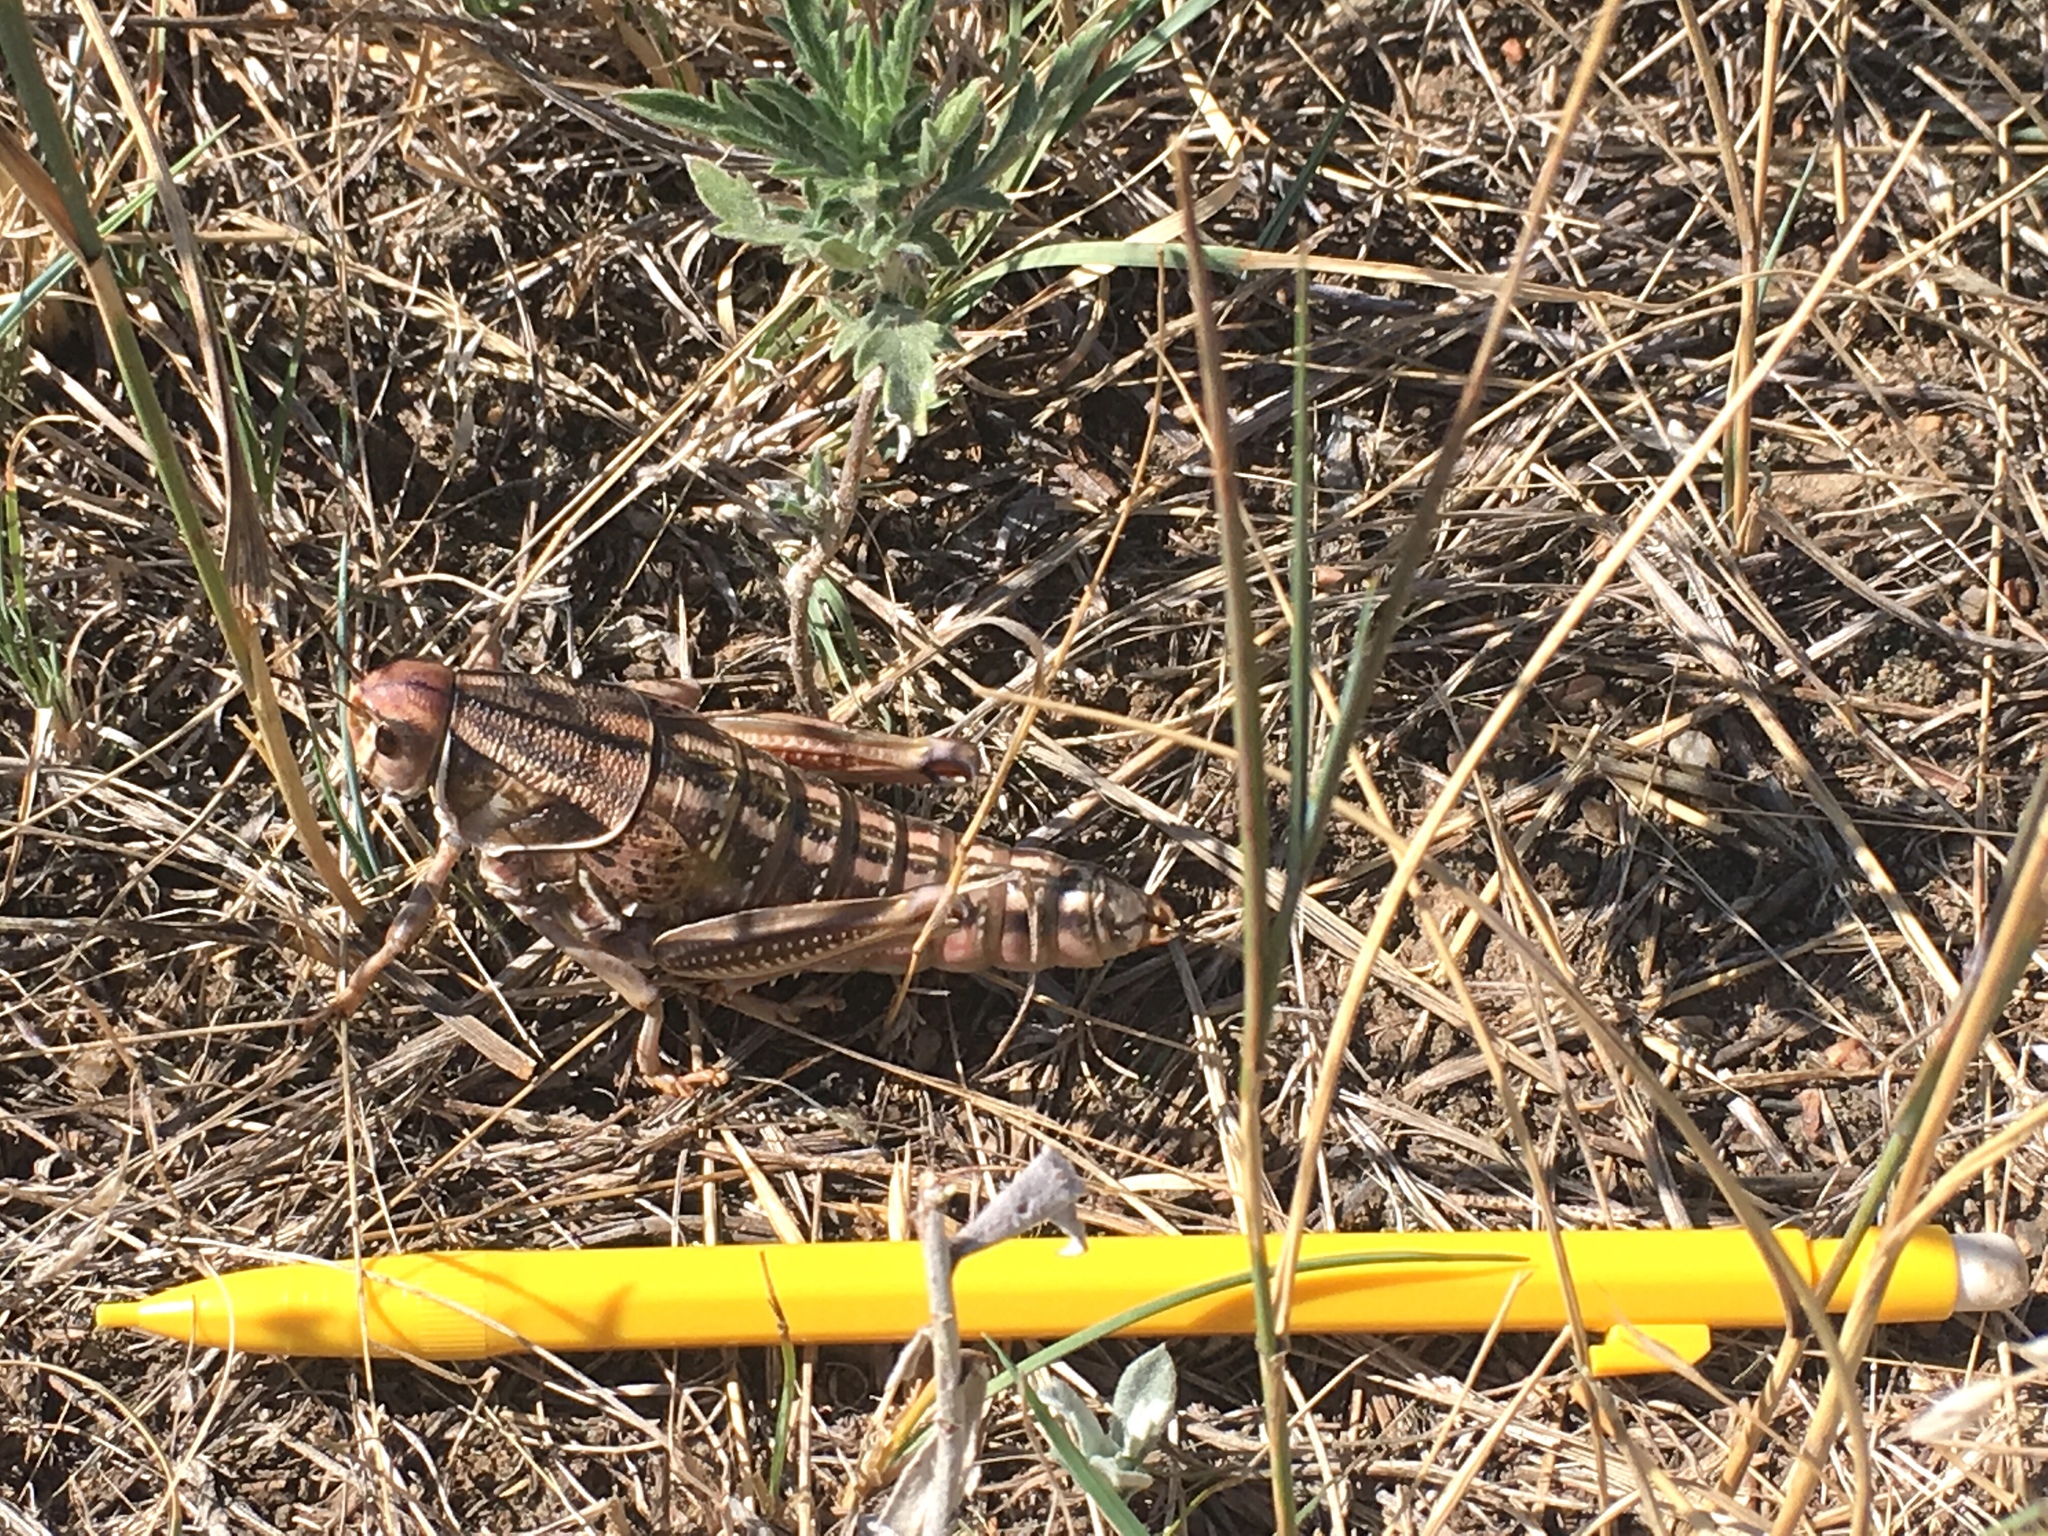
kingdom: Animalia
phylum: Arthropoda
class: Insecta
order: Orthoptera
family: Romaleidae
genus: Brachystola
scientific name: Brachystola magna
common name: Plains lubber grasshopper
